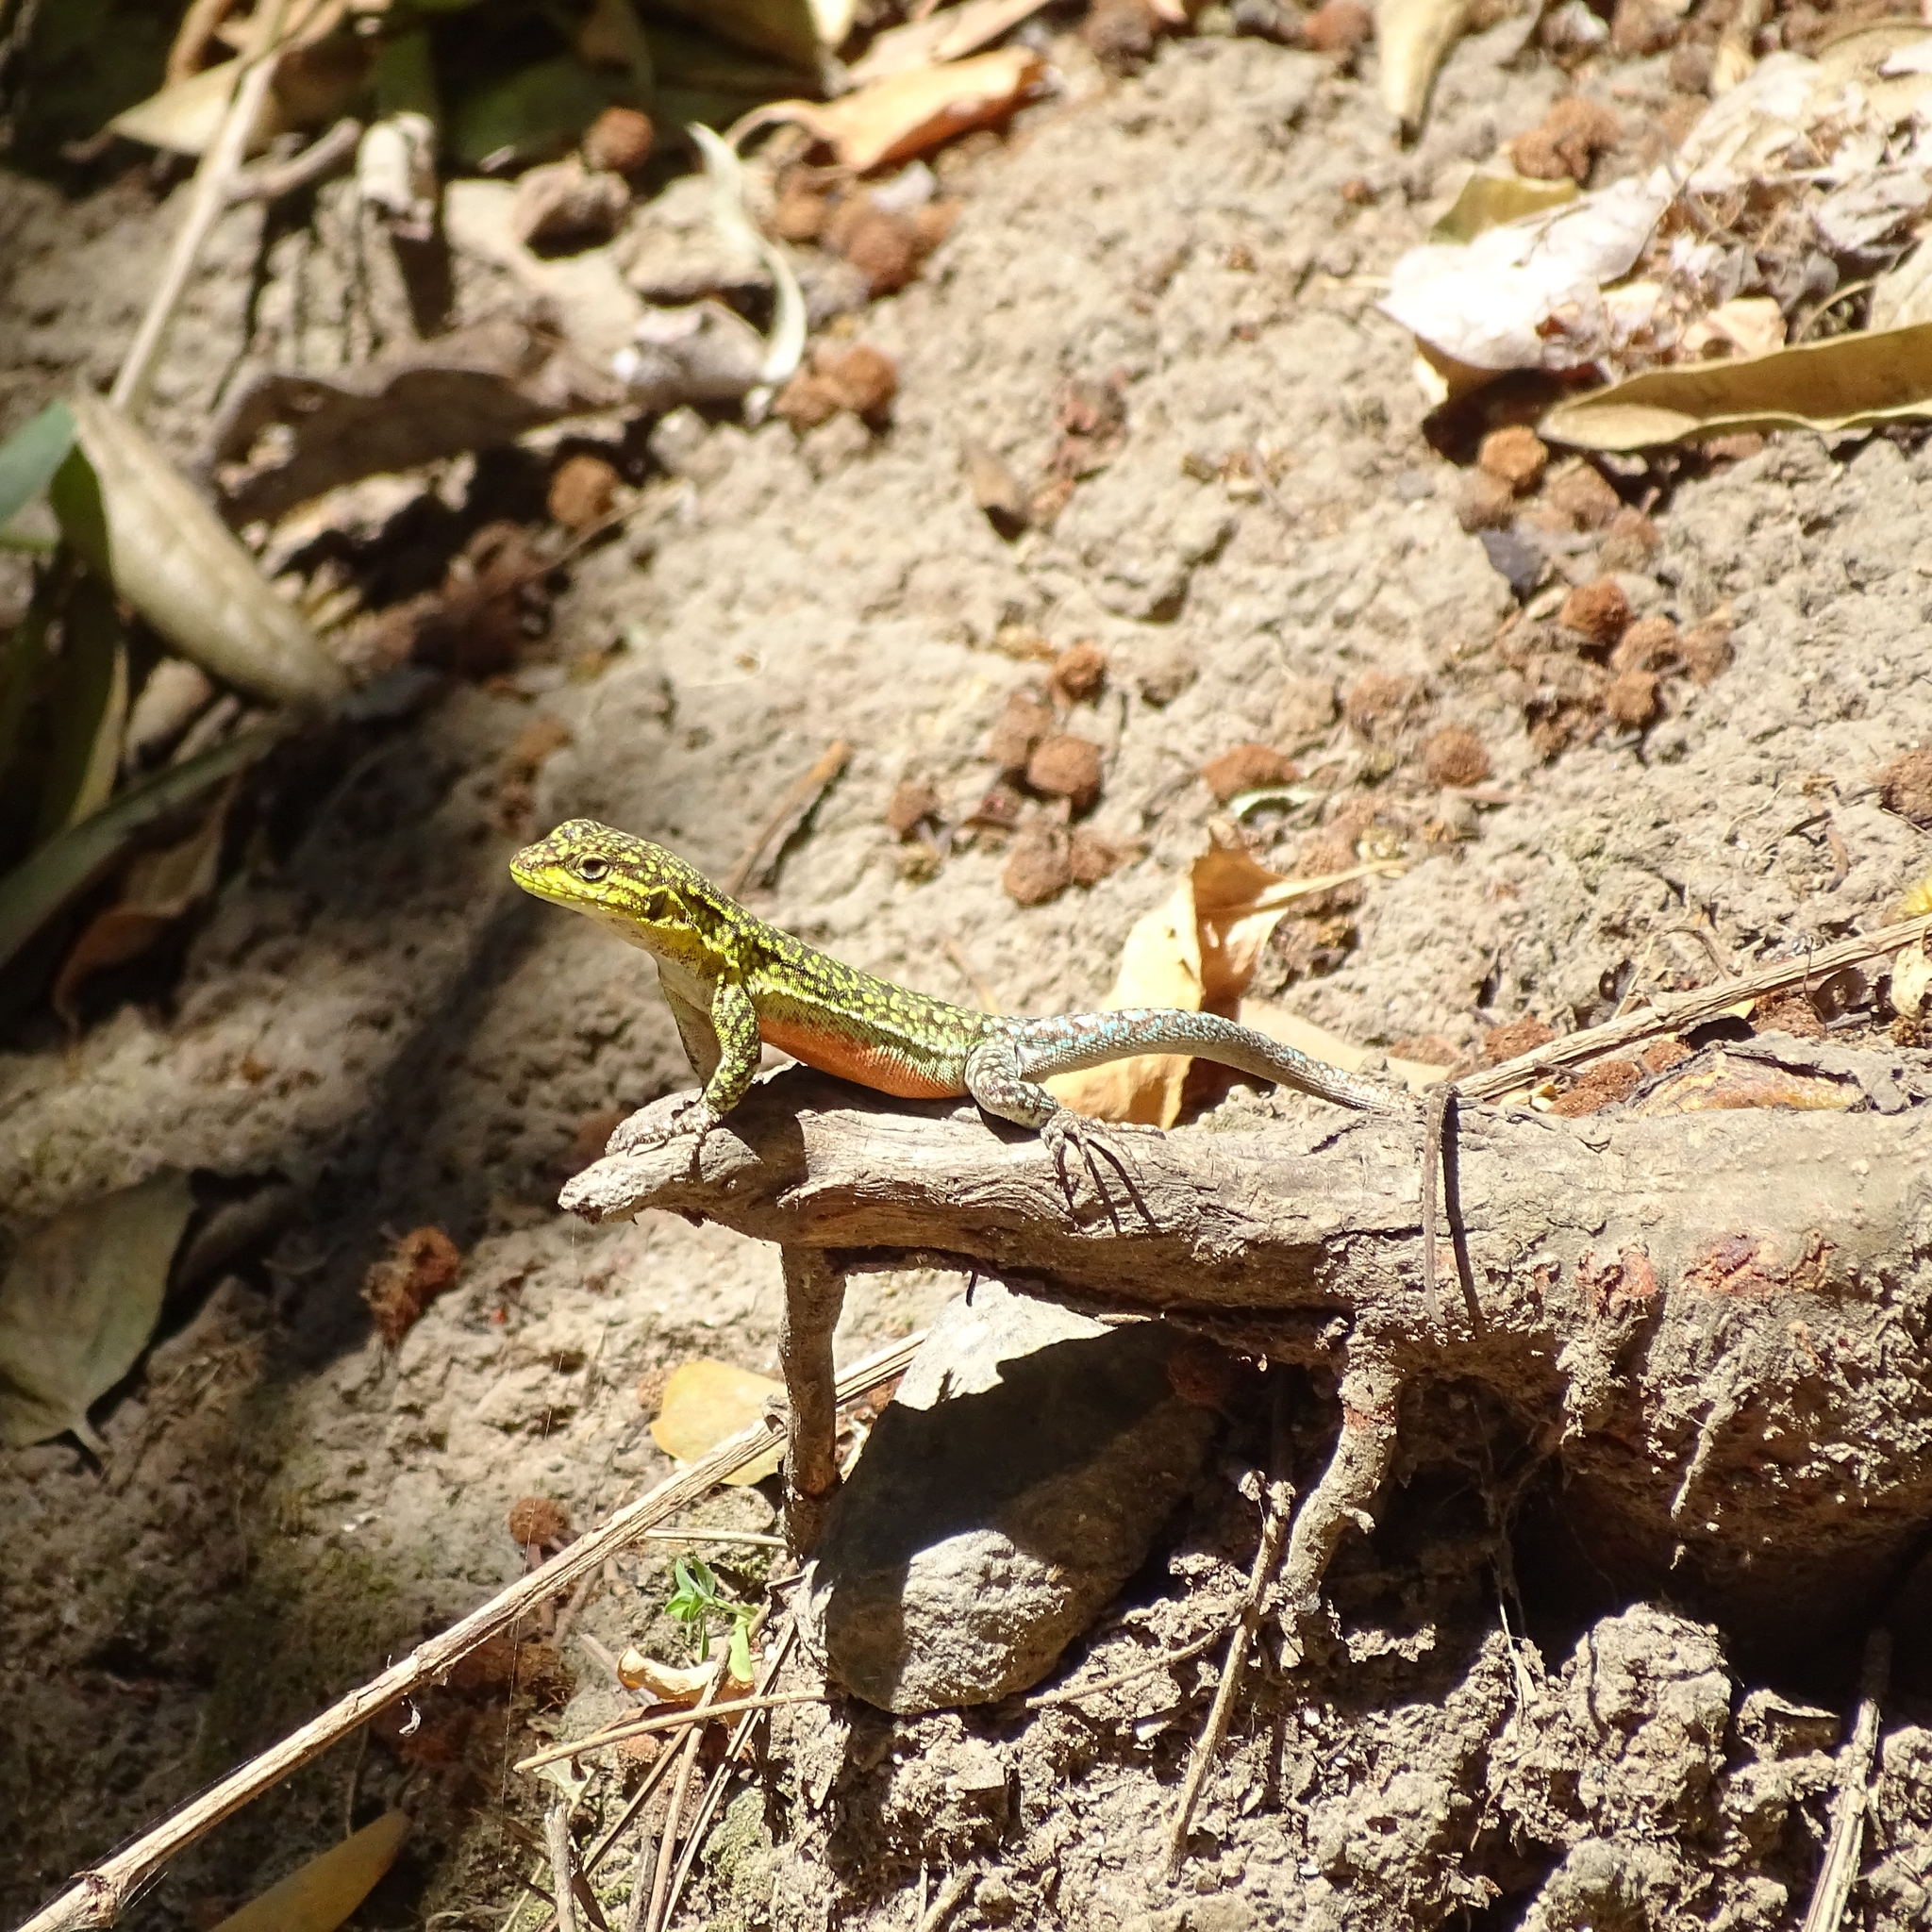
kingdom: Animalia
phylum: Chordata
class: Squamata
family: Liolaemidae
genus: Liolaemus
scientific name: Liolaemus tenuis
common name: Thin tree iguana
